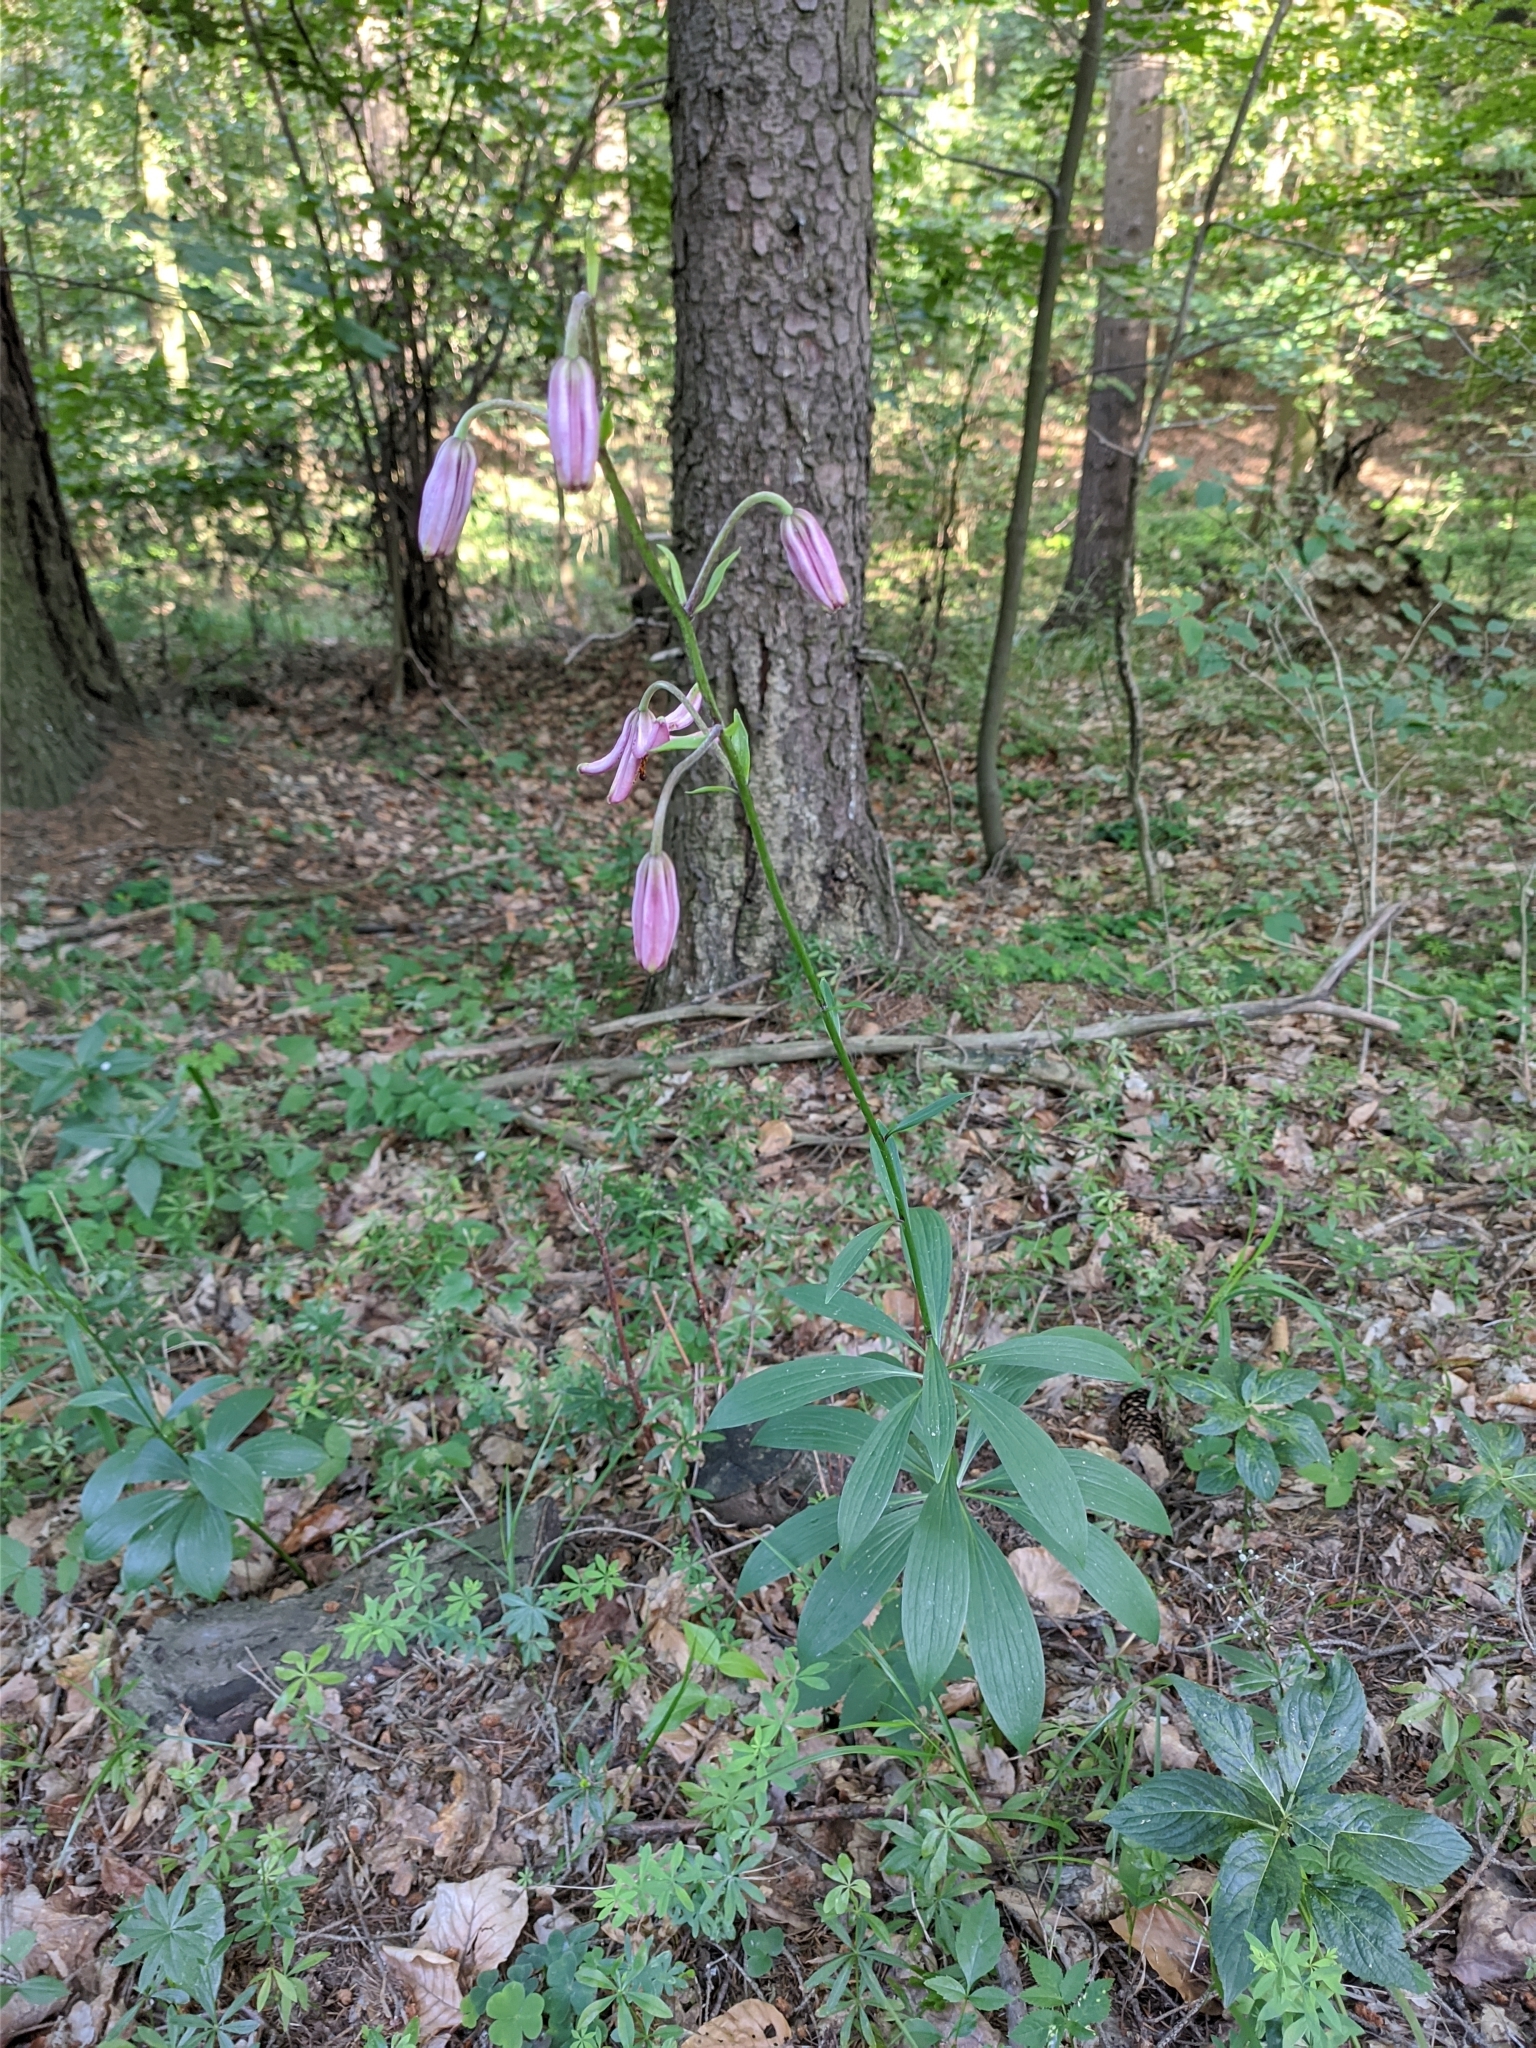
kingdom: Plantae
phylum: Tracheophyta
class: Liliopsida
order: Liliales
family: Liliaceae
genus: Lilium
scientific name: Lilium martagon
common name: Martagon lily
